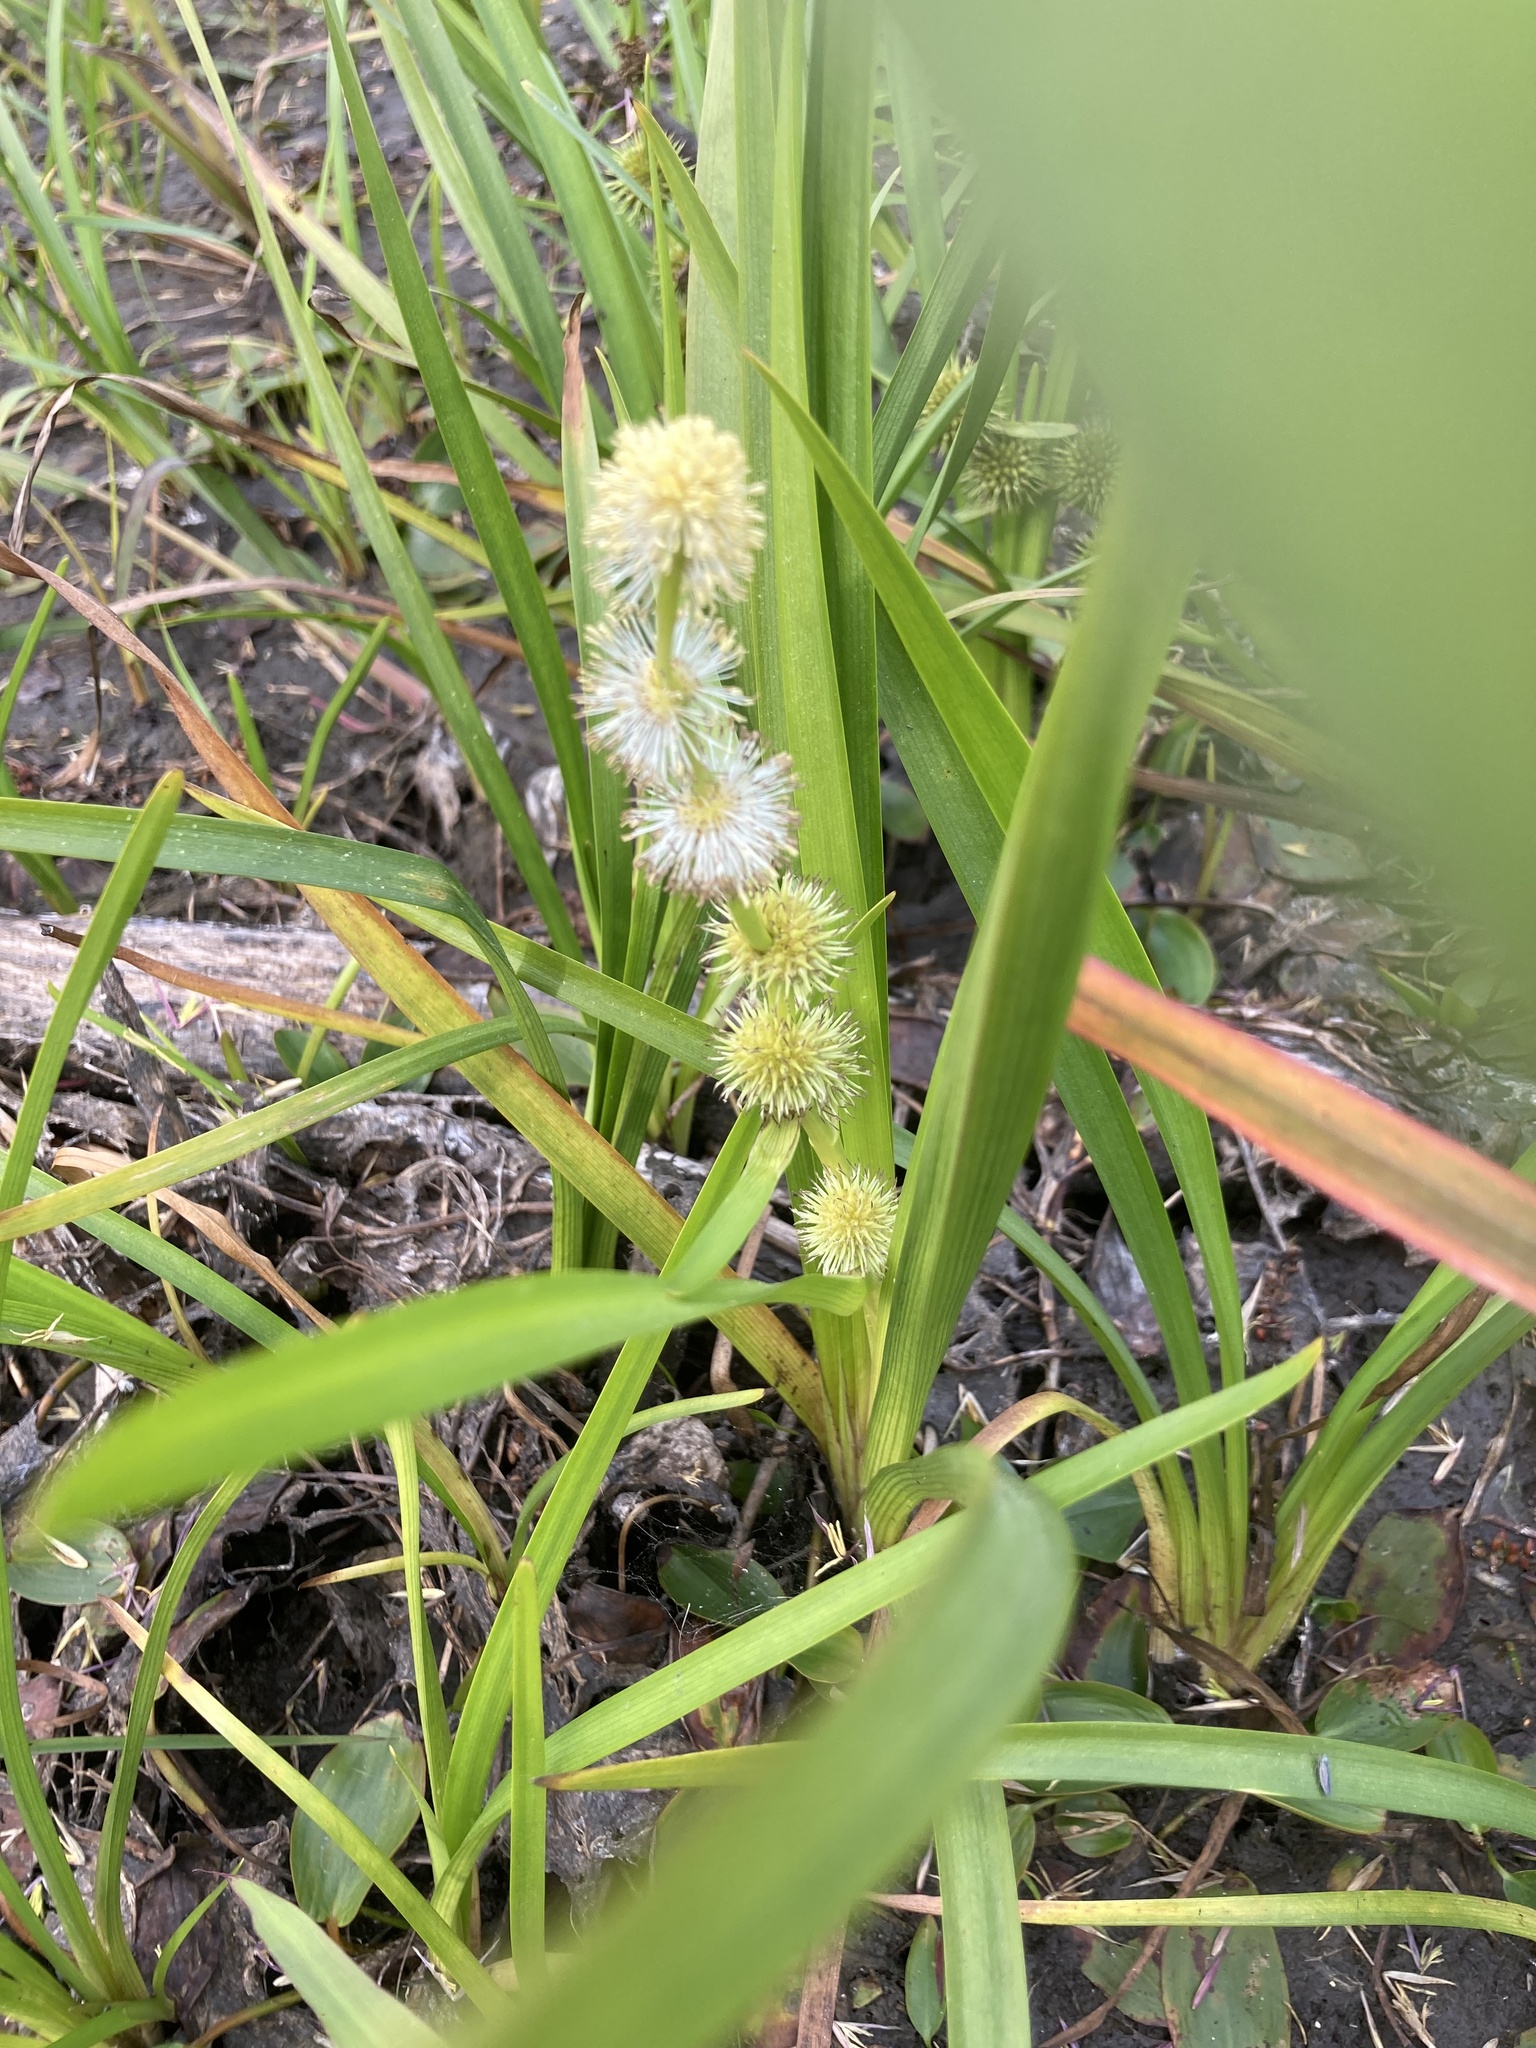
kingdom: Plantae
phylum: Tracheophyta
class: Liliopsida
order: Poales
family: Typhaceae
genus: Sparganium
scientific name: Sparganium emersum
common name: Unbranched bur-reed
